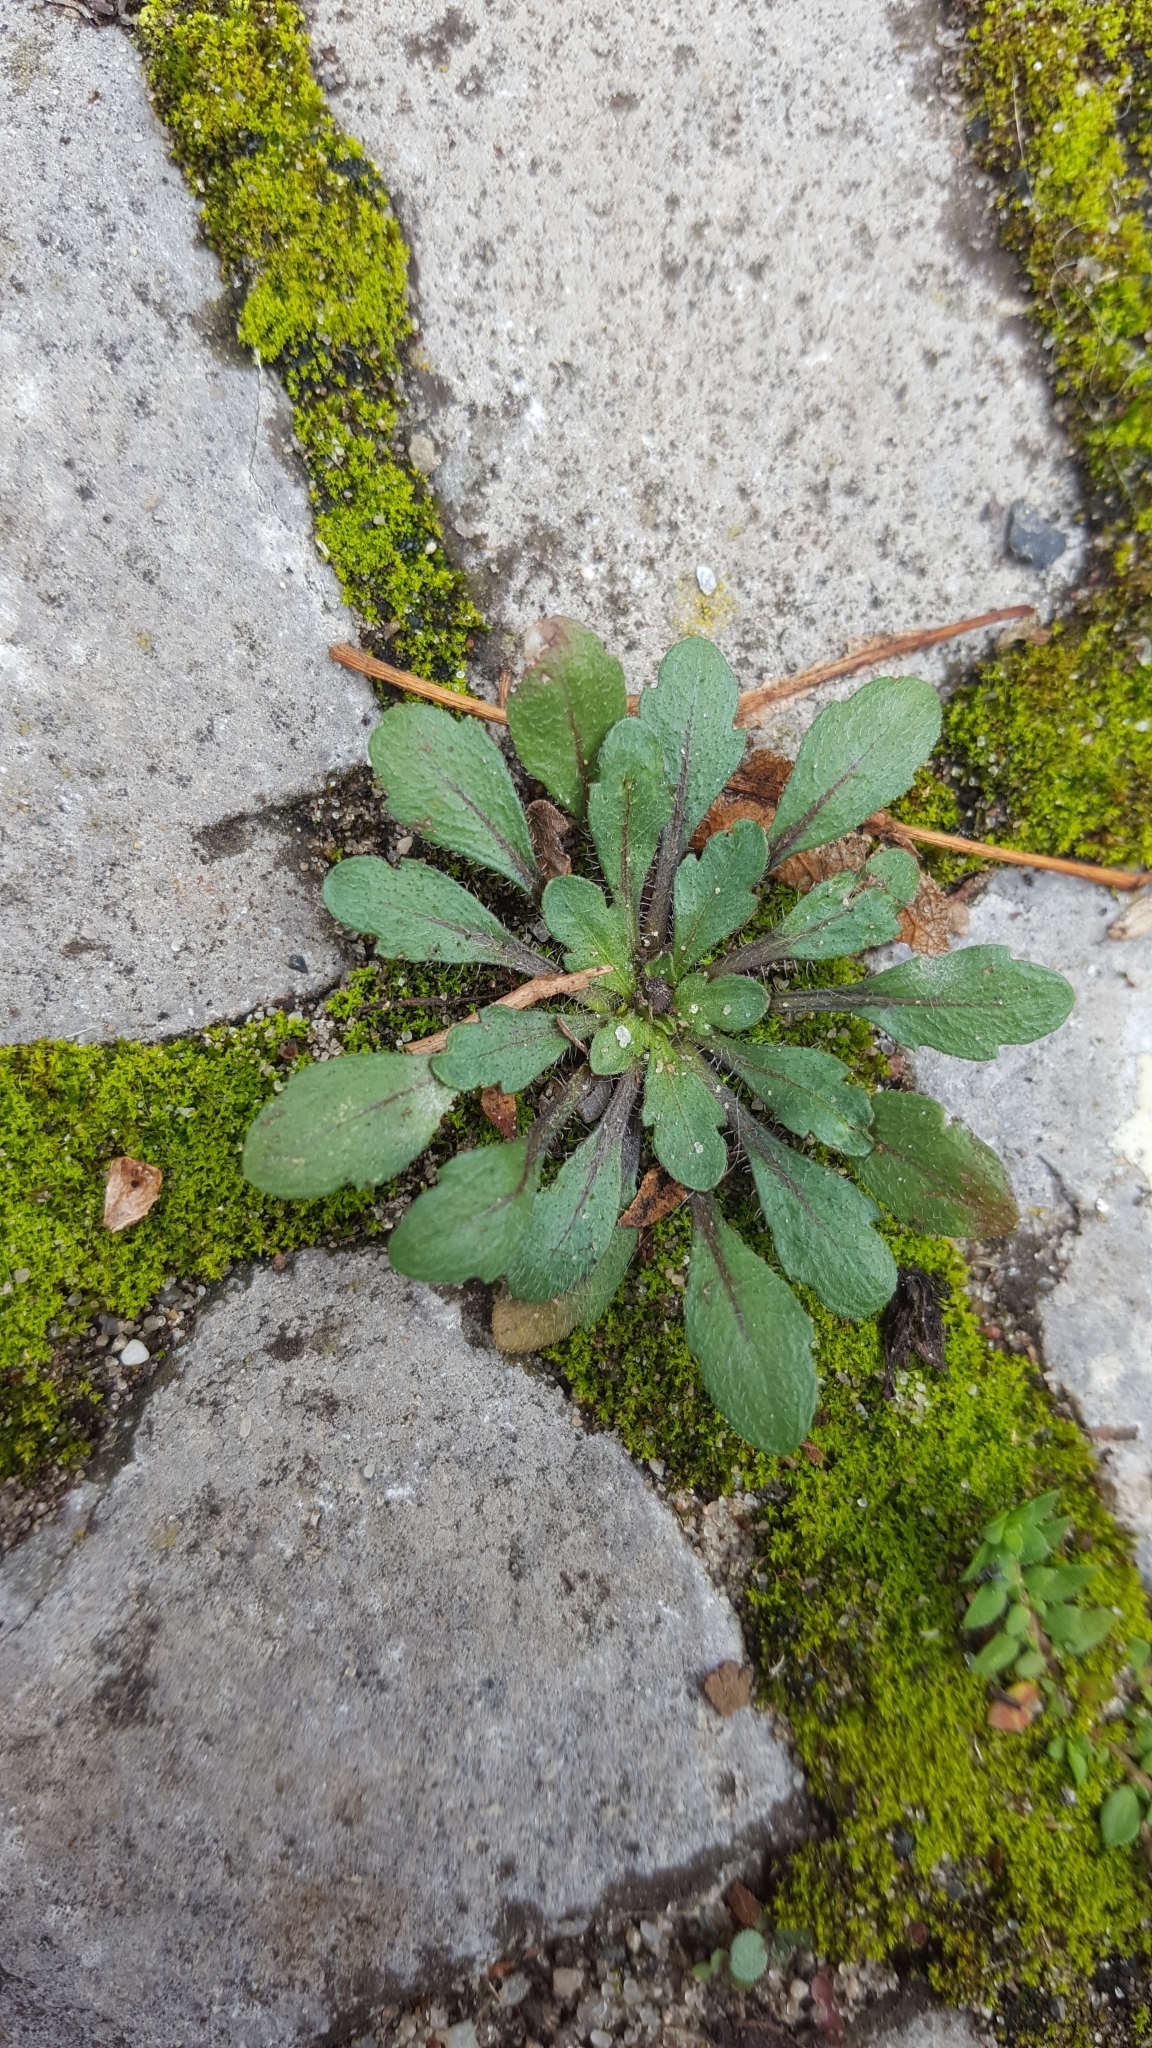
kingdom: Plantae
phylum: Tracheophyta
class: Magnoliopsida
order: Asterales
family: Asteraceae
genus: Erigeron
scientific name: Erigeron canadensis
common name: Canadian fleabane
